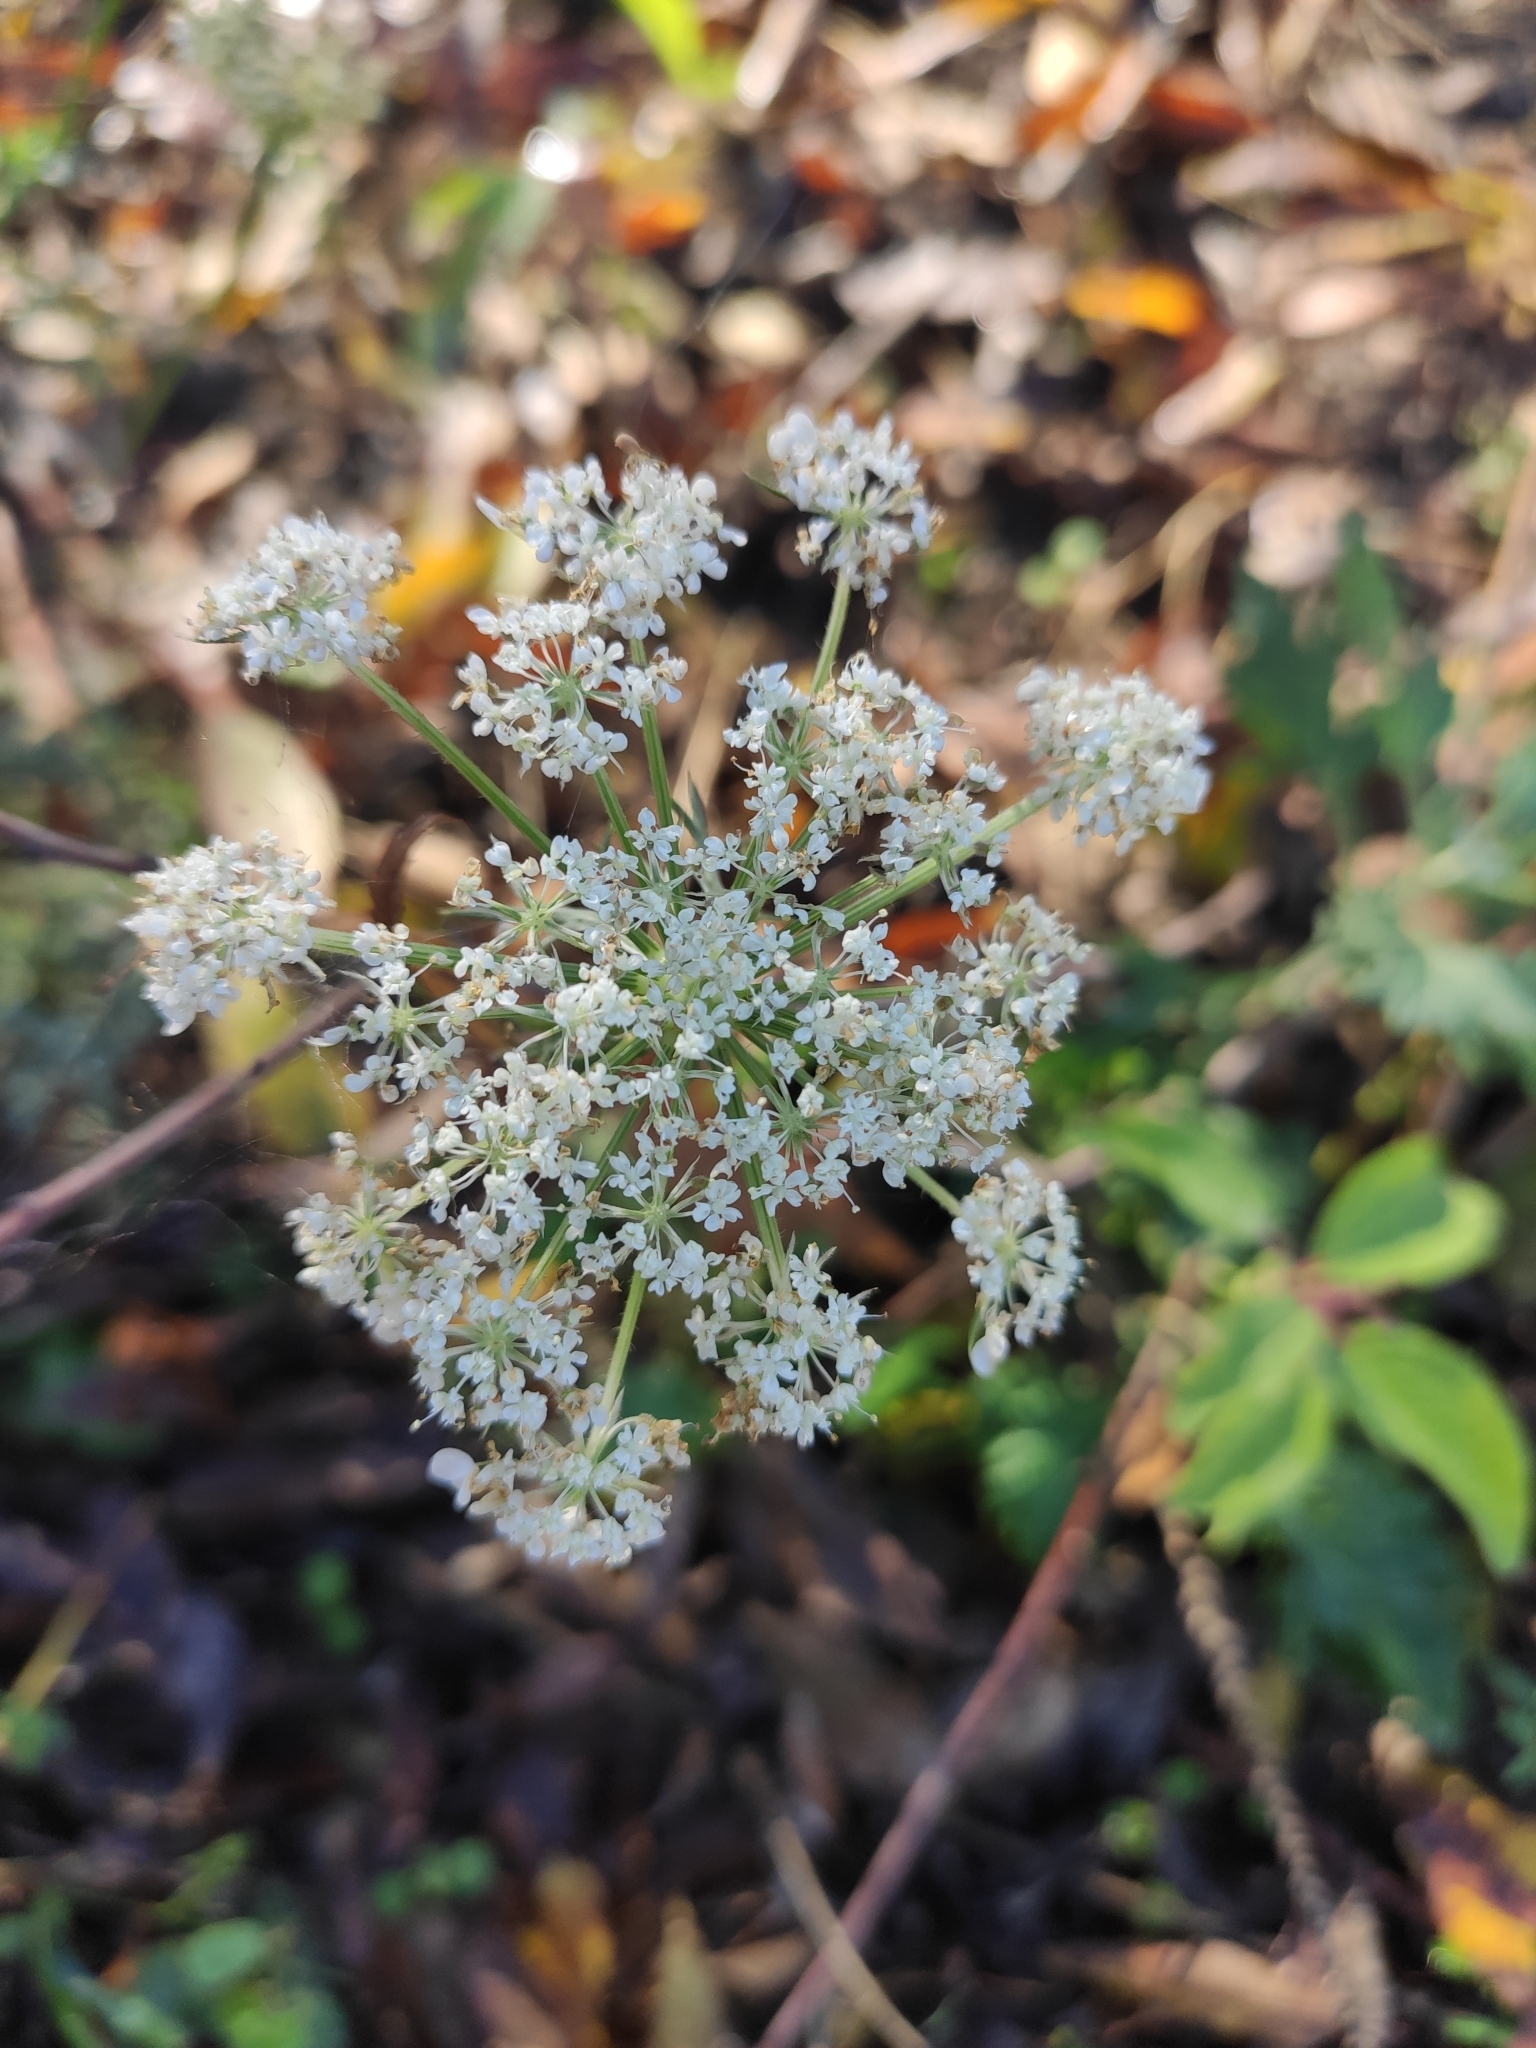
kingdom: Plantae
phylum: Tracheophyta
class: Magnoliopsida
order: Apiales
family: Apiaceae
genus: Daucus
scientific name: Daucus carota
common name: Wild carrot
